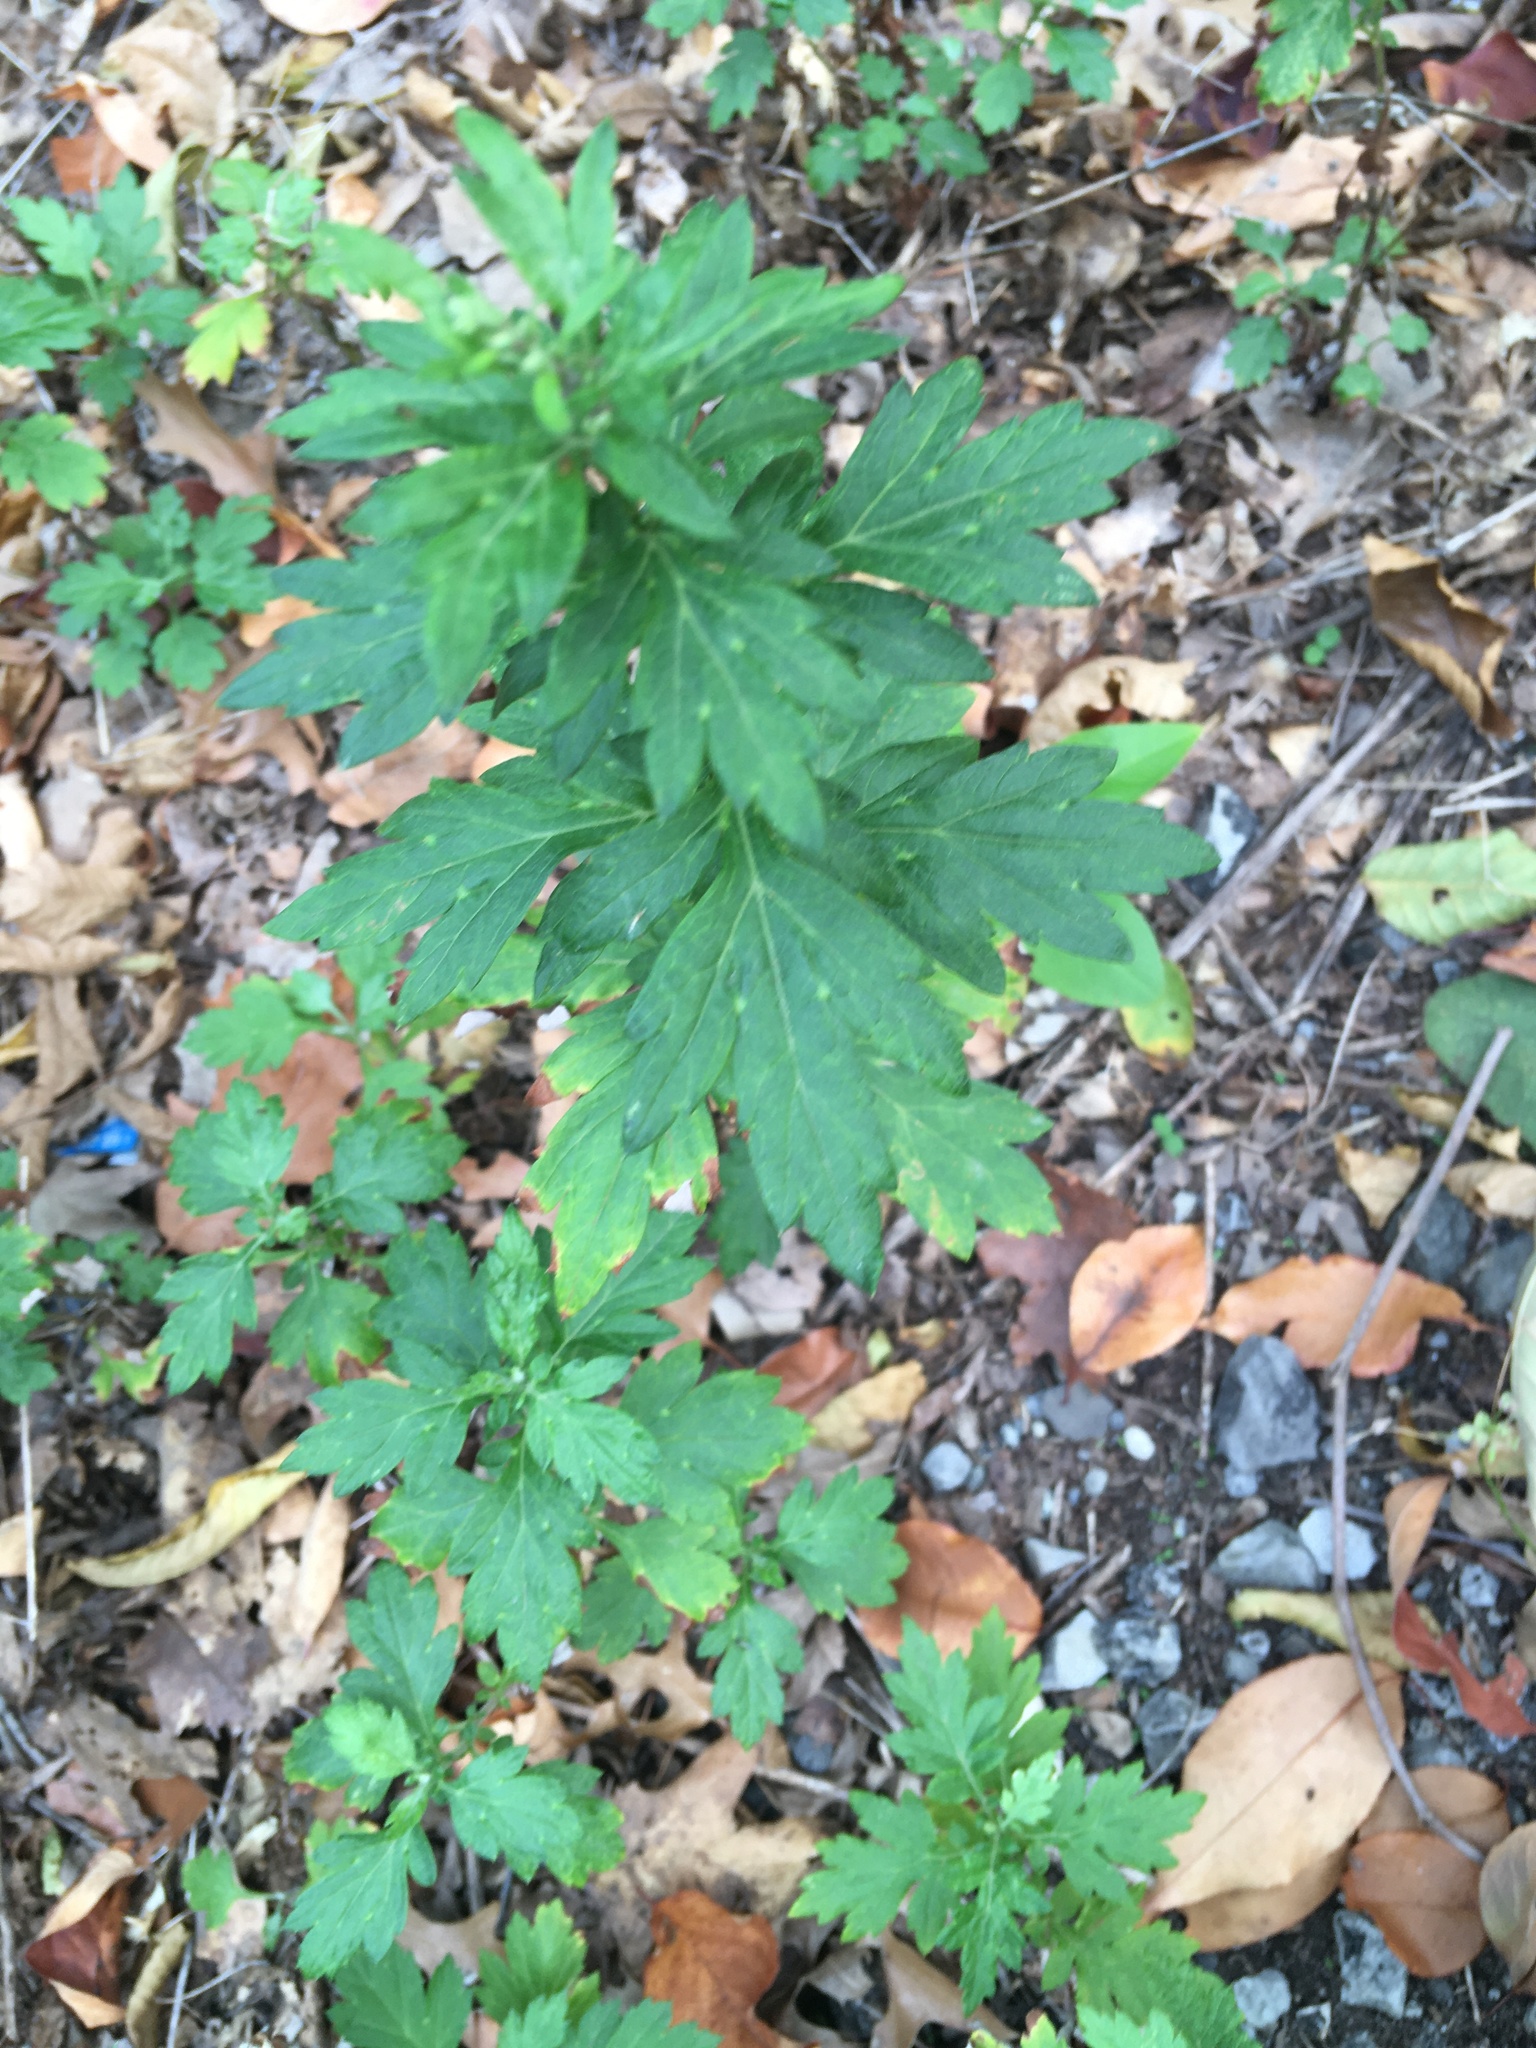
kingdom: Plantae
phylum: Tracheophyta
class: Magnoliopsida
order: Asterales
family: Asteraceae
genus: Artemisia
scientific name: Artemisia vulgaris
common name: Mugwort
